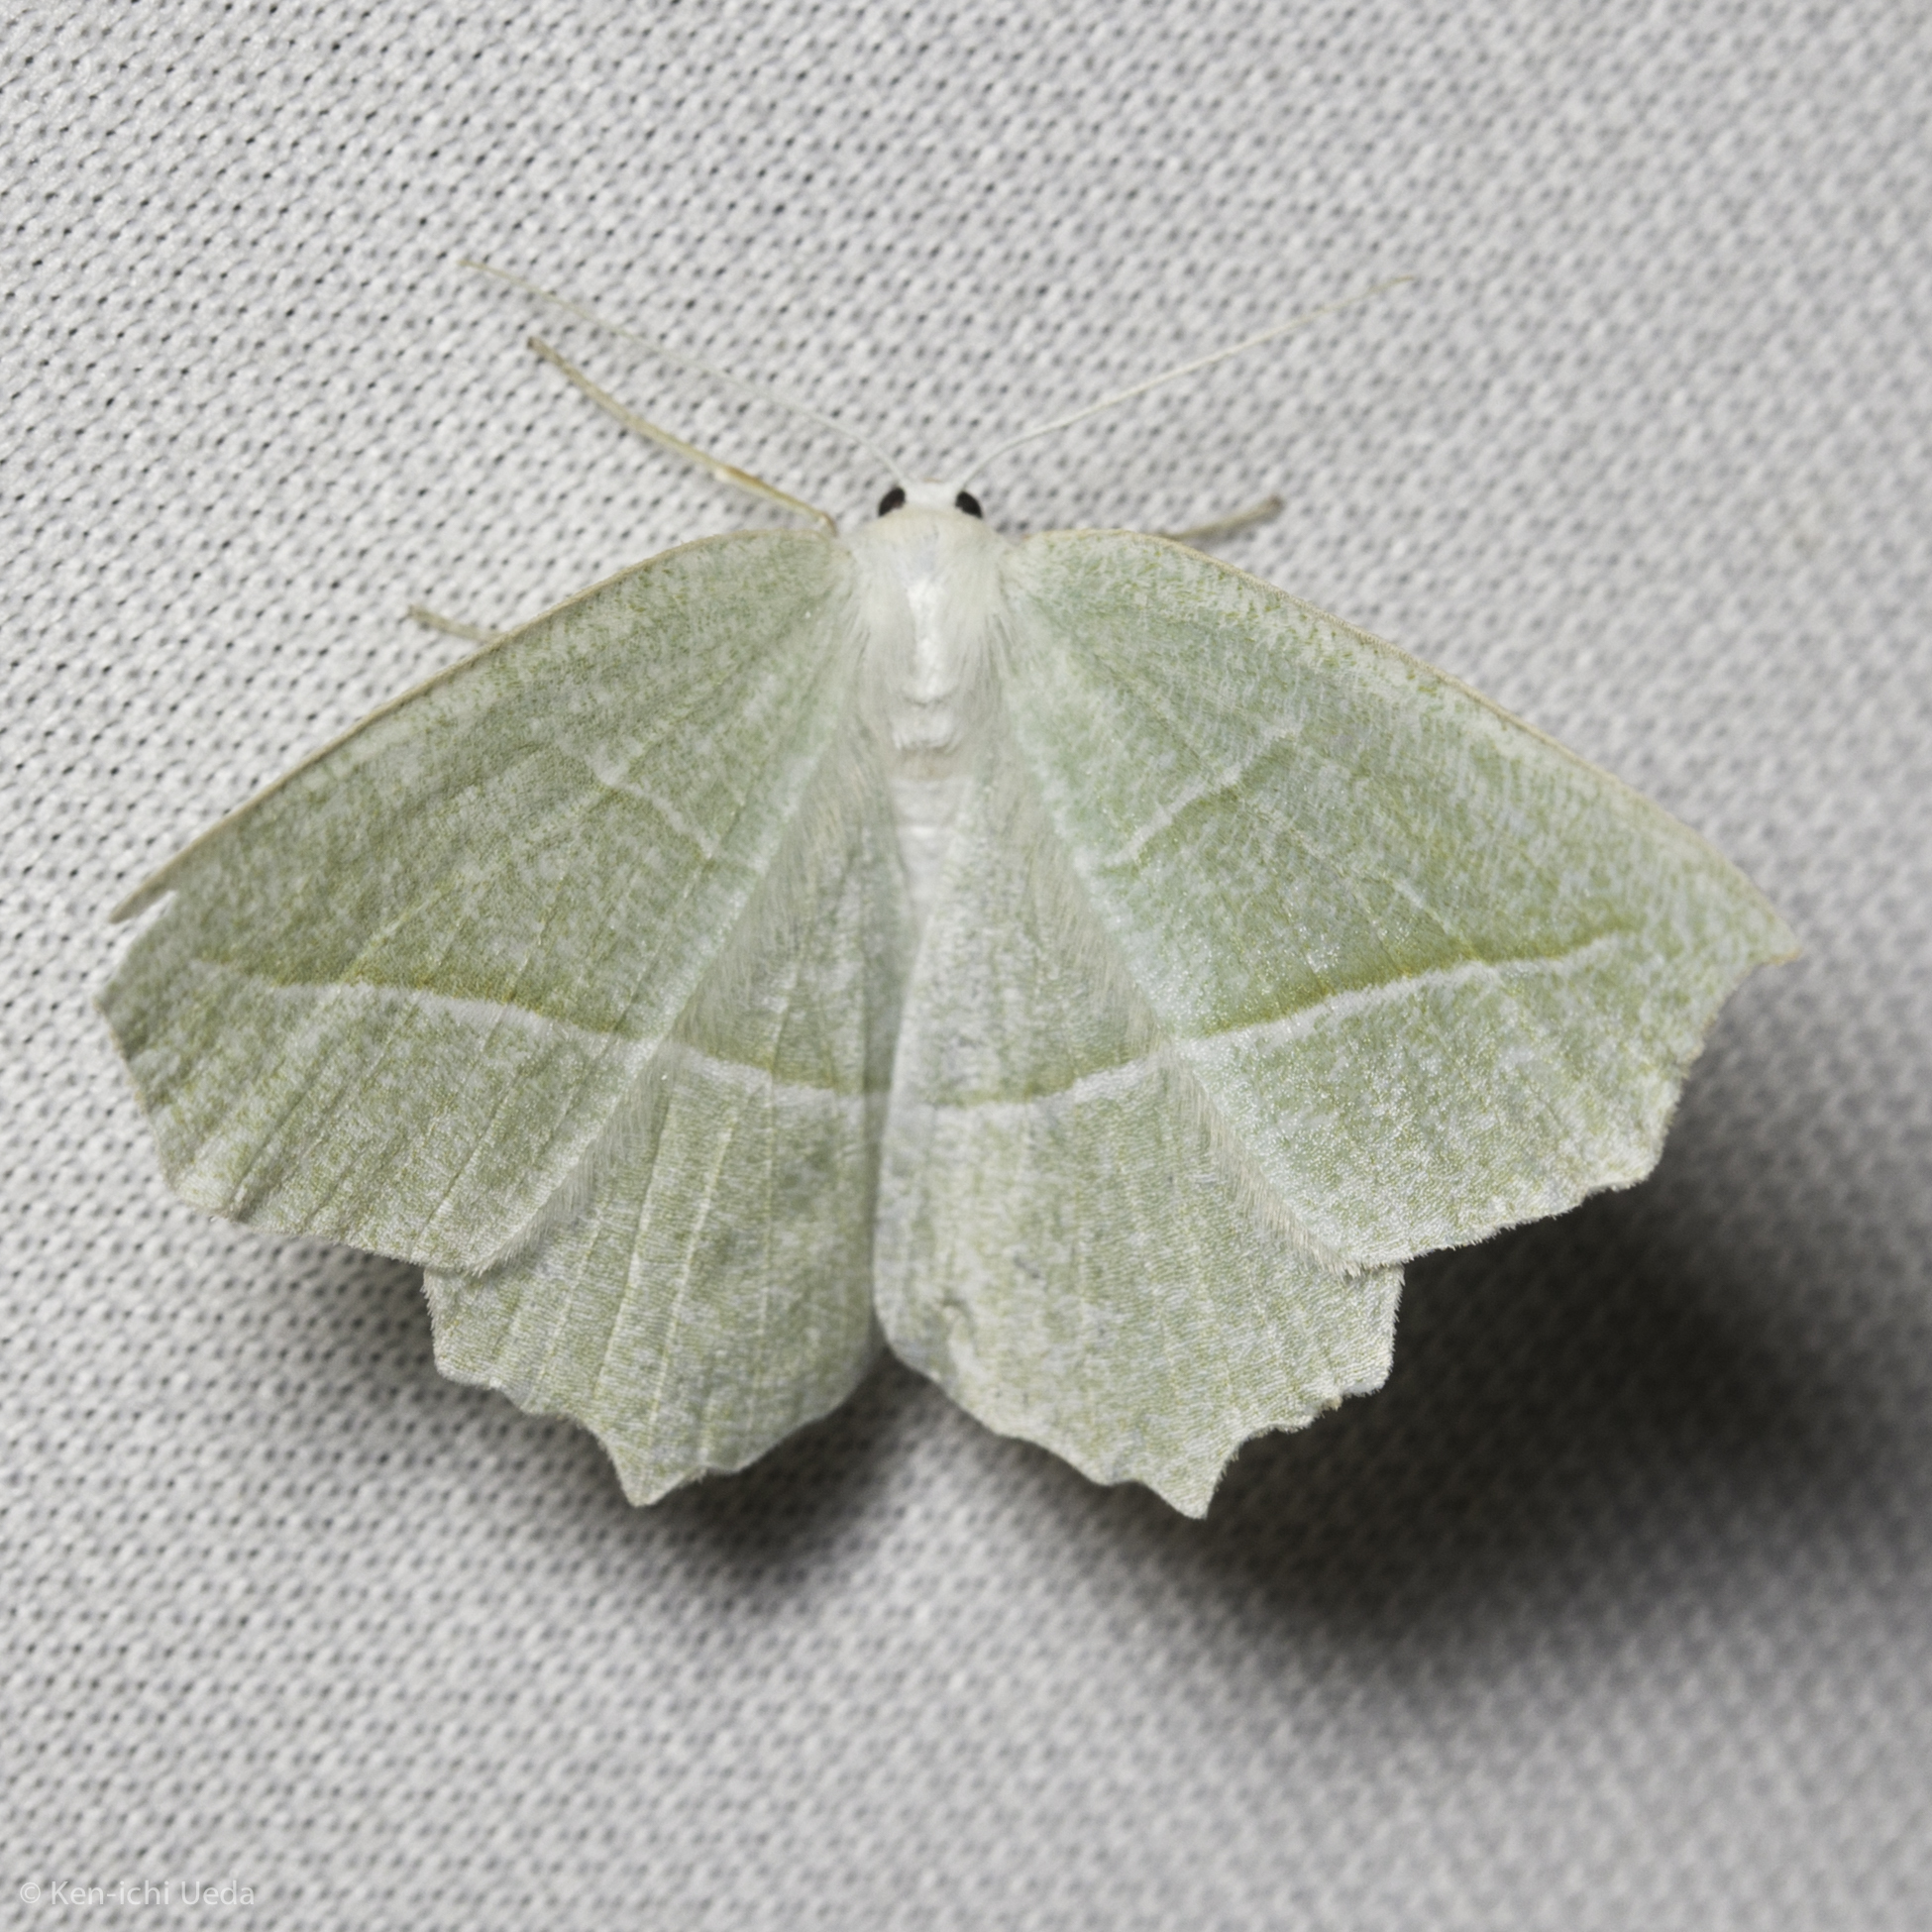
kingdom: Animalia
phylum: Arthropoda
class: Insecta
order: Lepidoptera
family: Geometridae
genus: Campaea
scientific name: Campaea perlata
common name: Fringed looper
